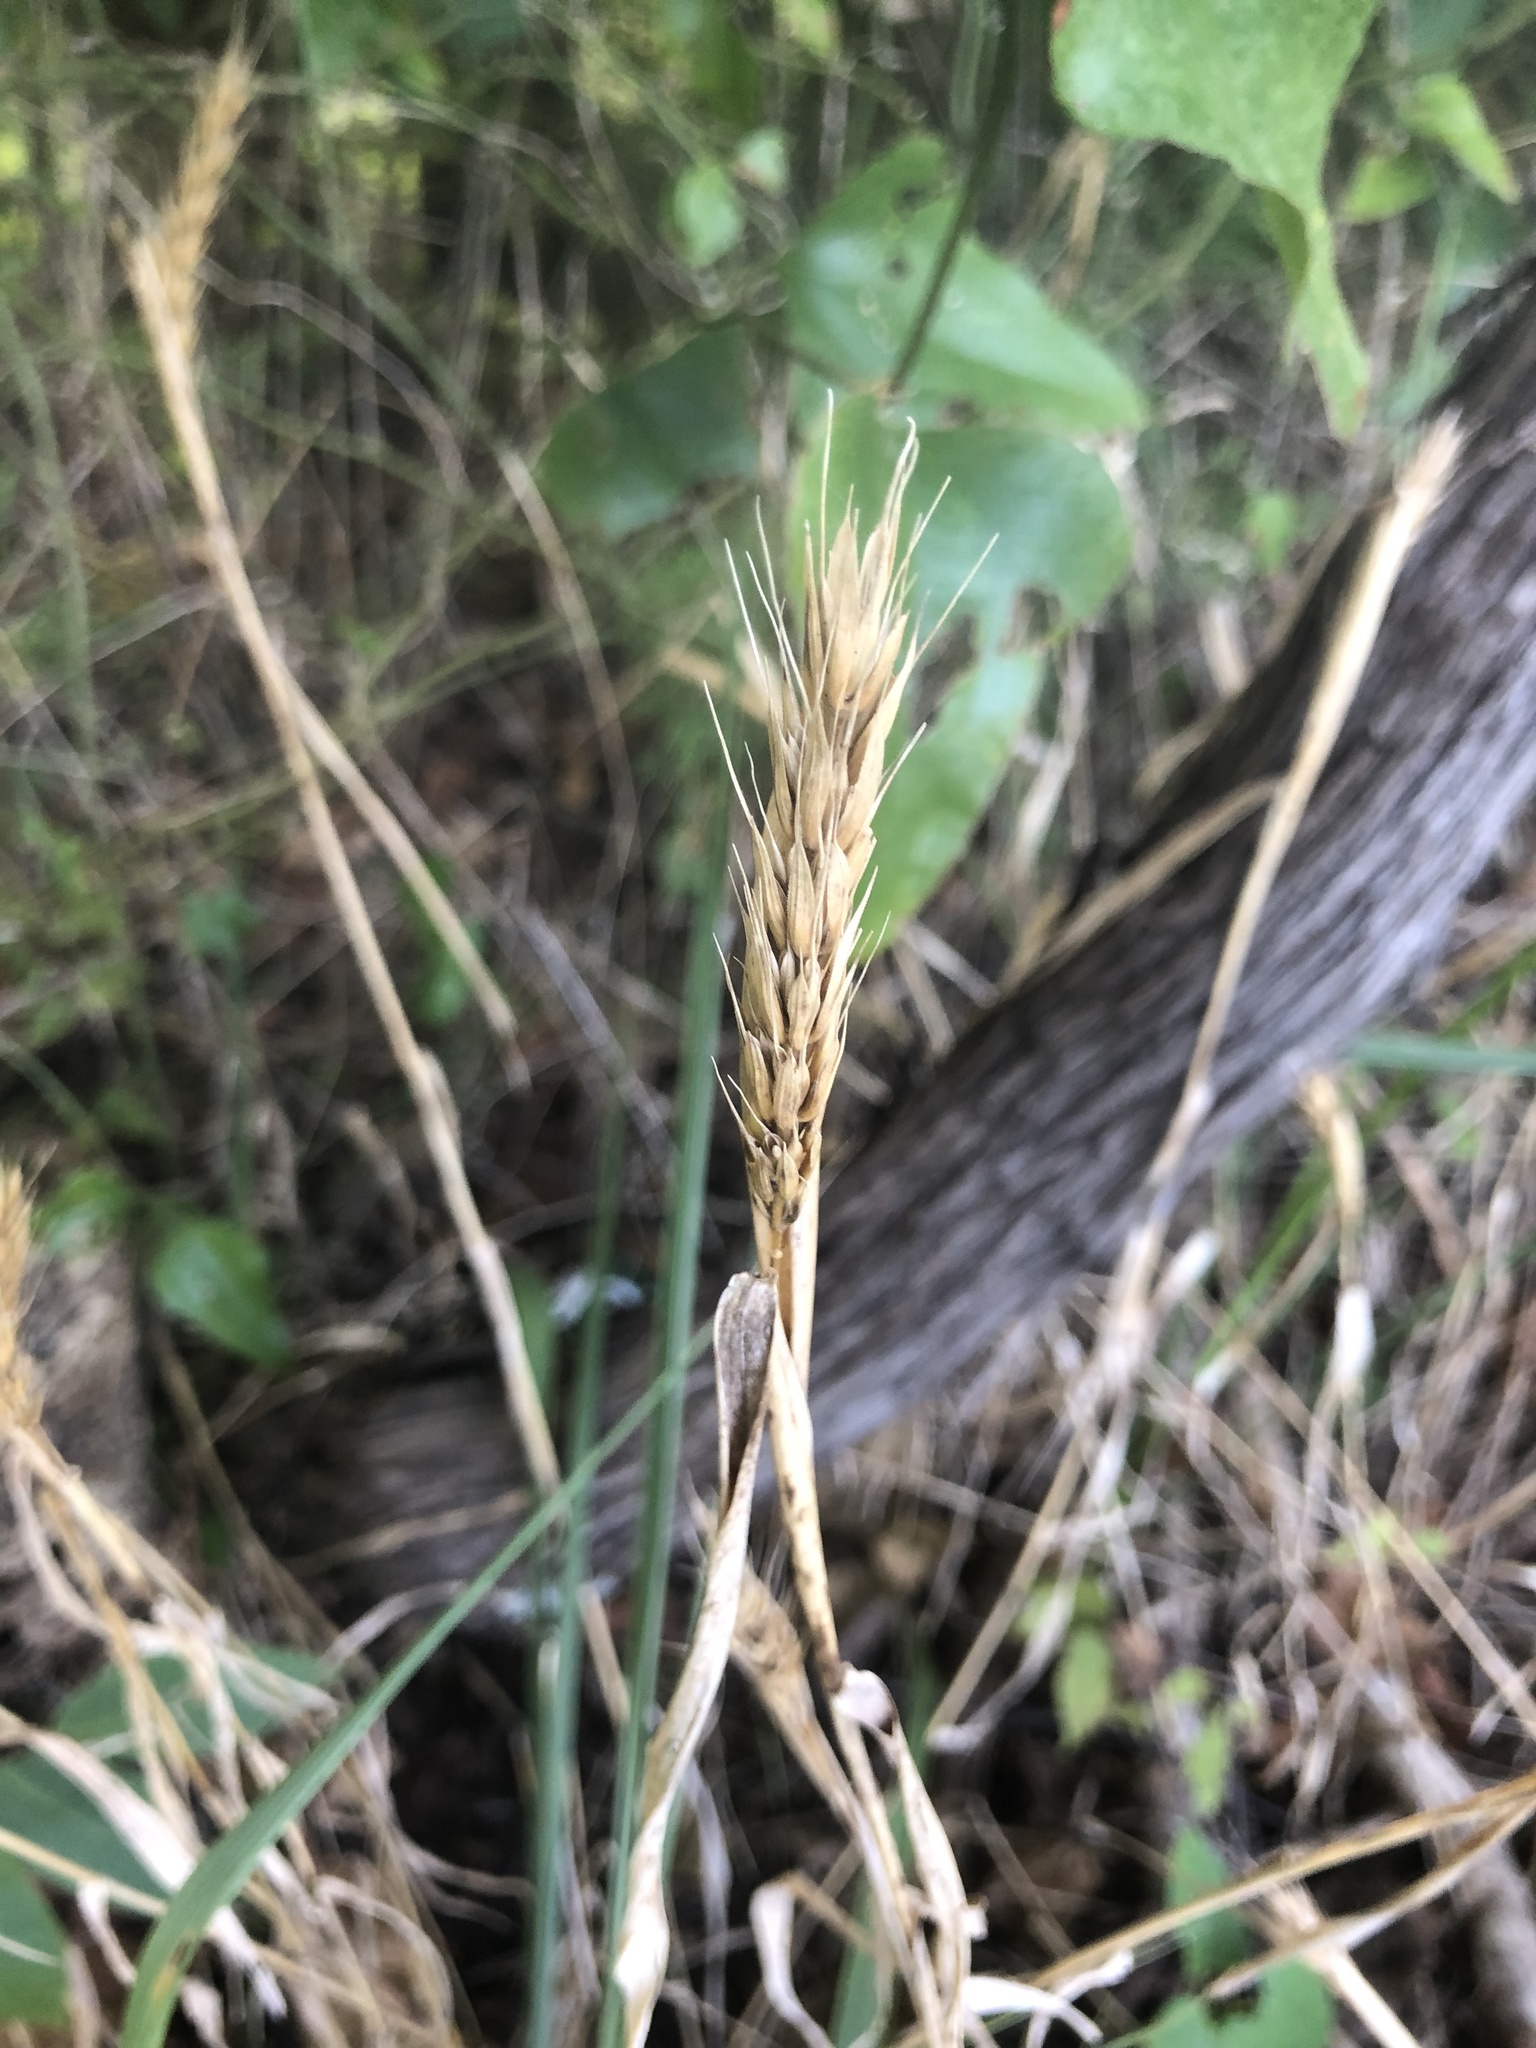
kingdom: Plantae
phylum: Tracheophyta
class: Liliopsida
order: Poales
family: Poaceae
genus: Elymus
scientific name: Elymus virginicus
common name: Common eastern wildrye
